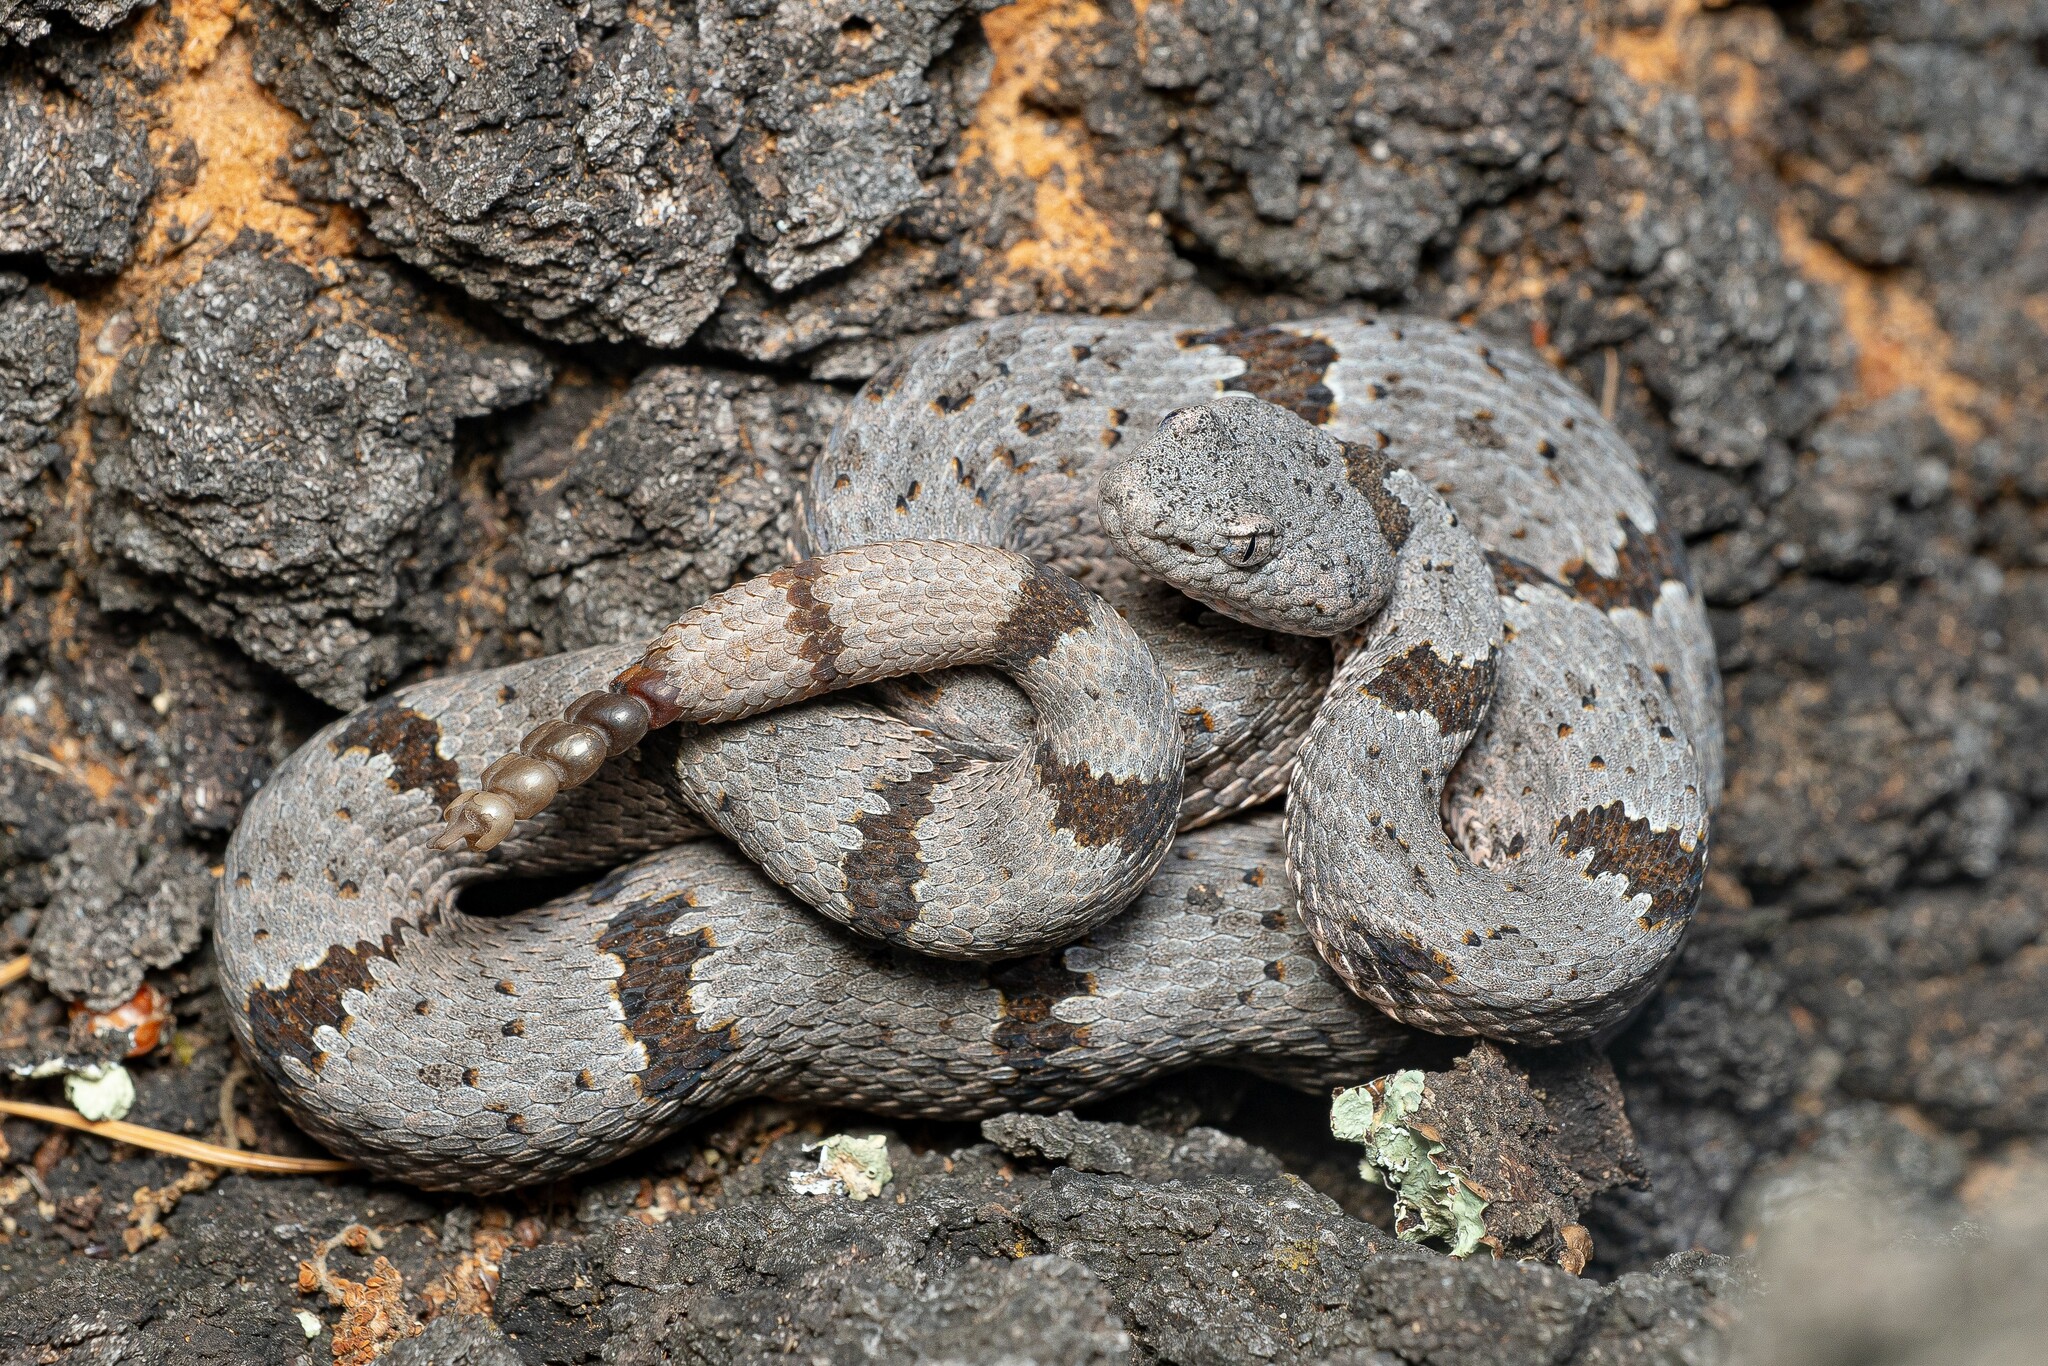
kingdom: Animalia
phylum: Chordata
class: Squamata
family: Viperidae
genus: Crotalus
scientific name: Crotalus lepidus
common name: Rock rattlesnake
